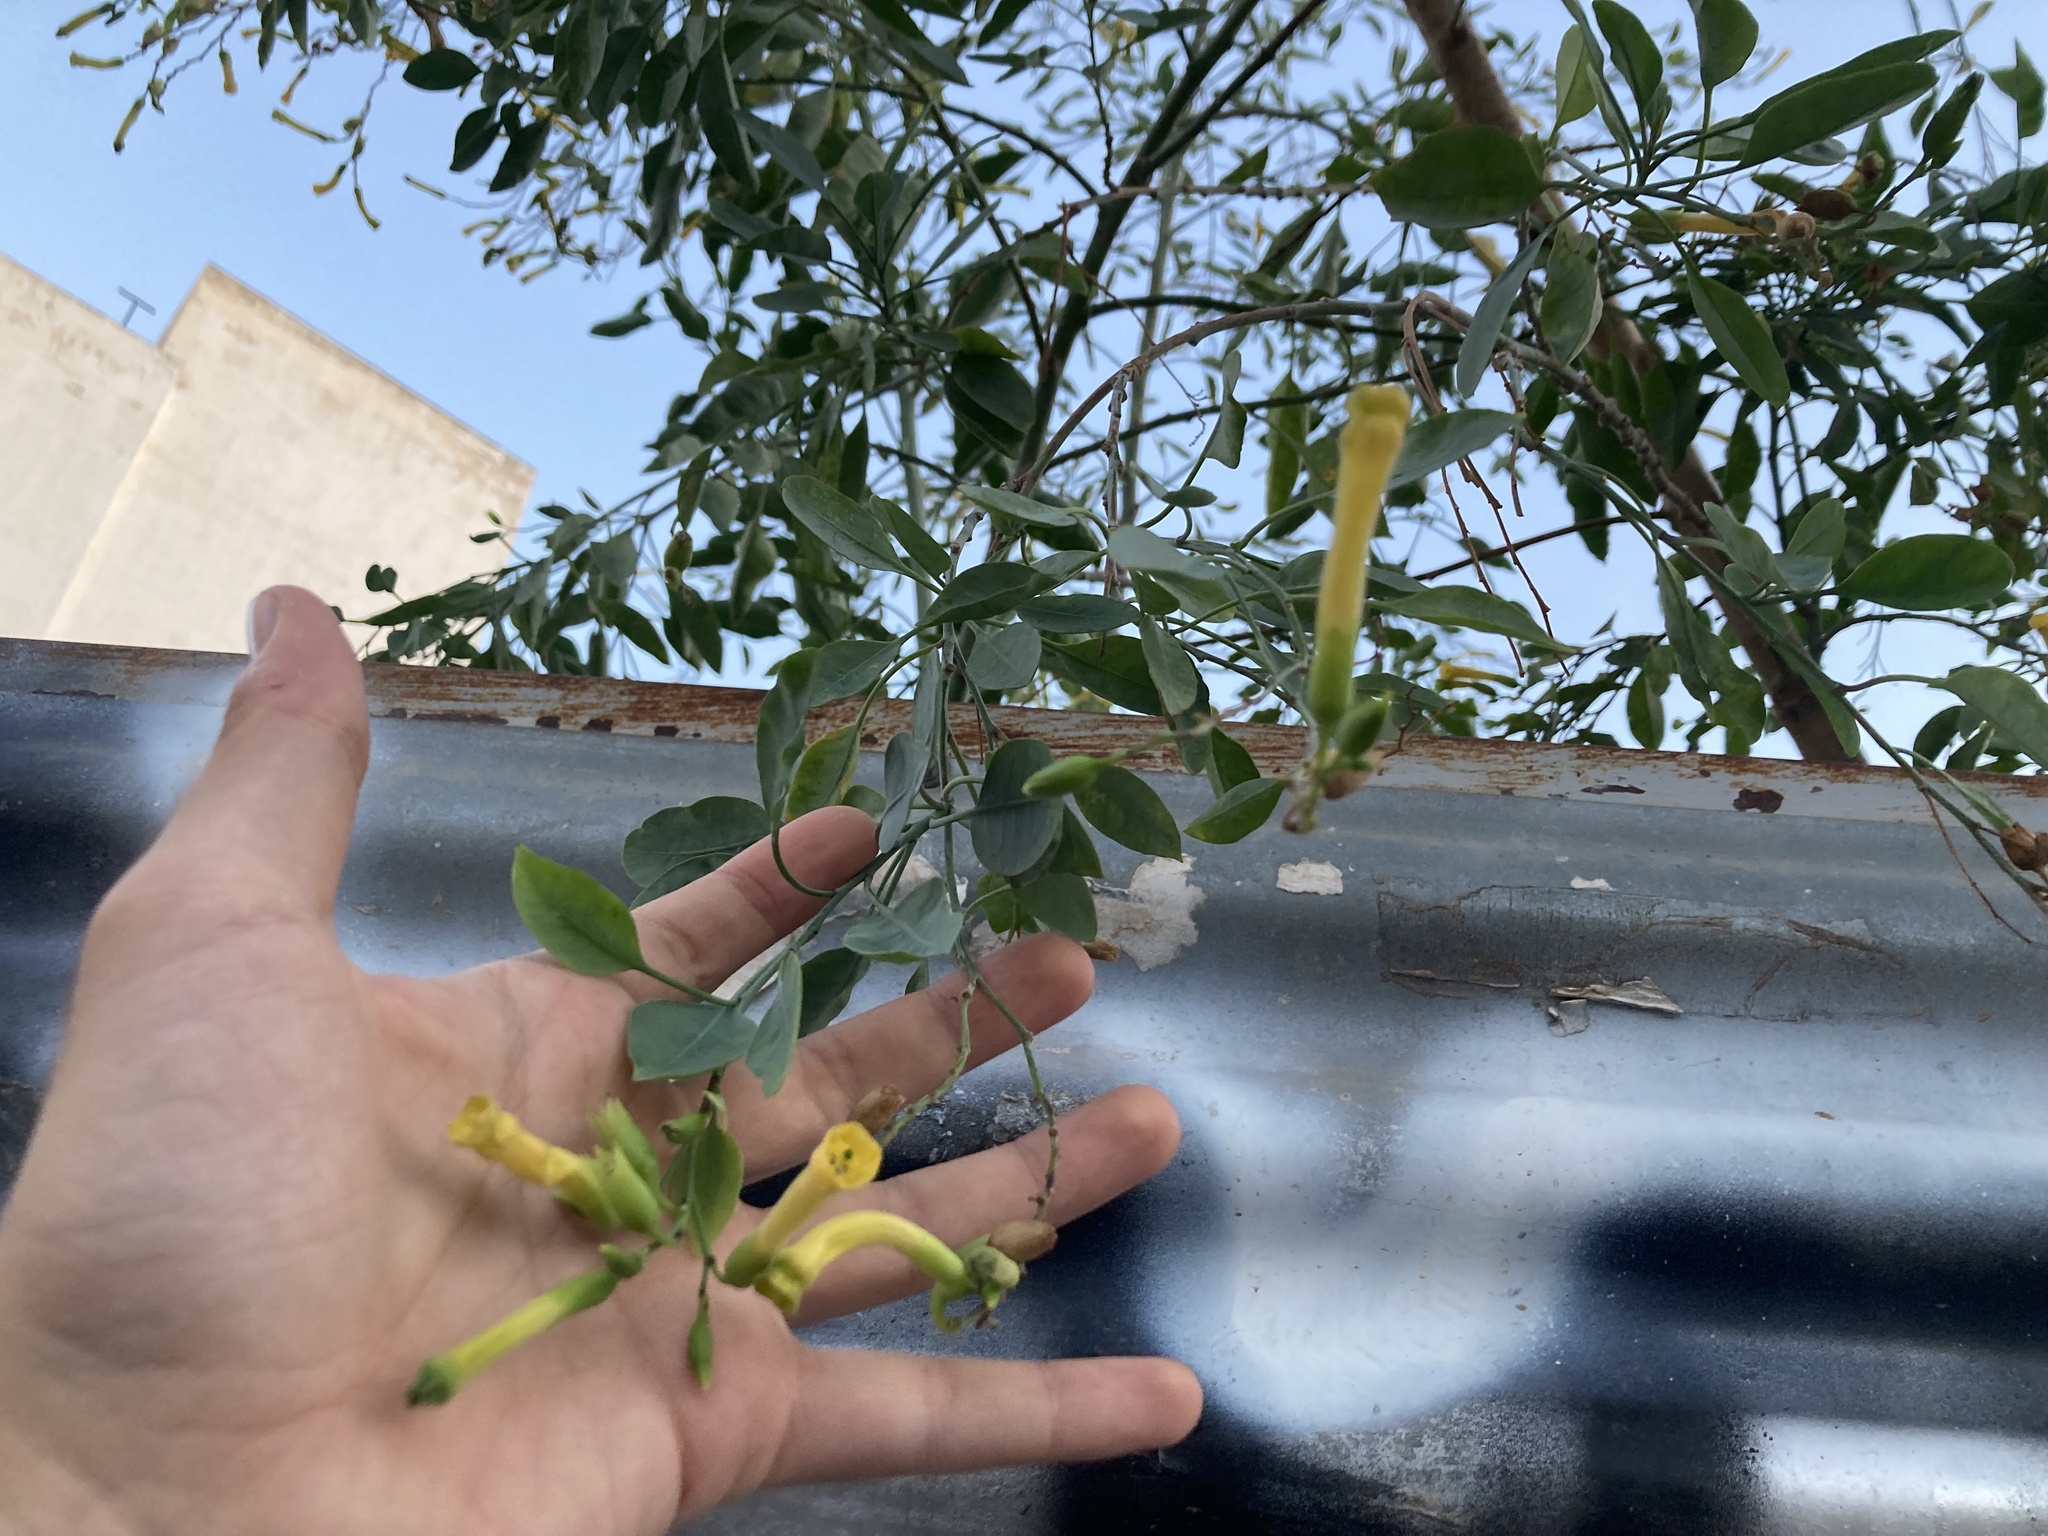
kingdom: Plantae
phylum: Tracheophyta
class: Magnoliopsida
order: Solanales
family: Solanaceae
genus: Nicotiana
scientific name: Nicotiana glauca
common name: Tree tobacco
